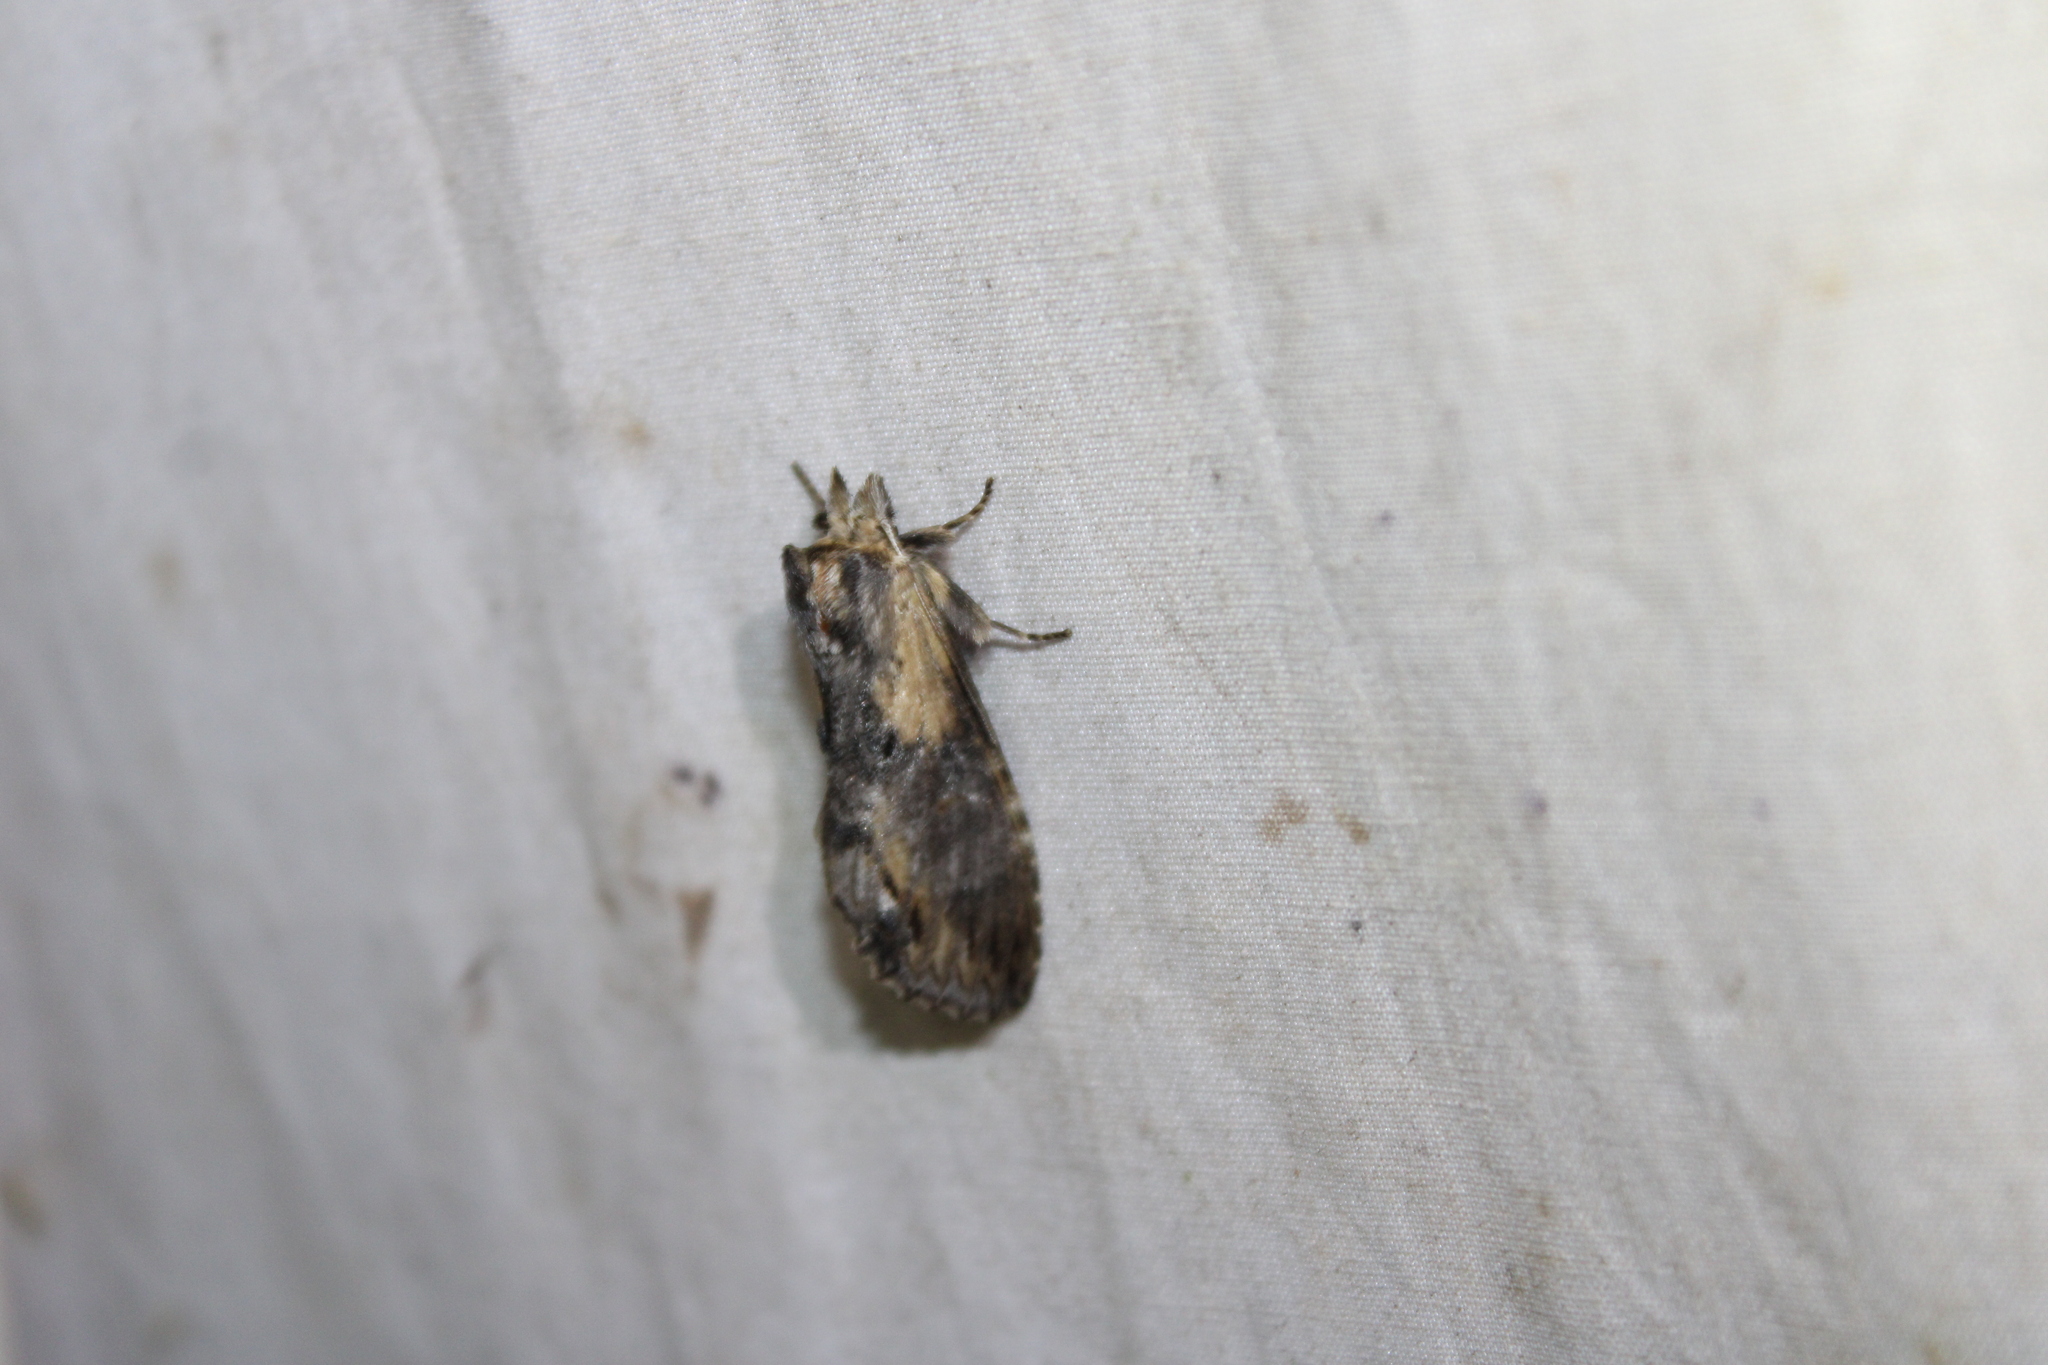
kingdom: Animalia
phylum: Arthropoda
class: Insecta
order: Lepidoptera
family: Notodontidae
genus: Dasylophia
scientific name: Dasylophia thyatiroides
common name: Gray-patched prominent
